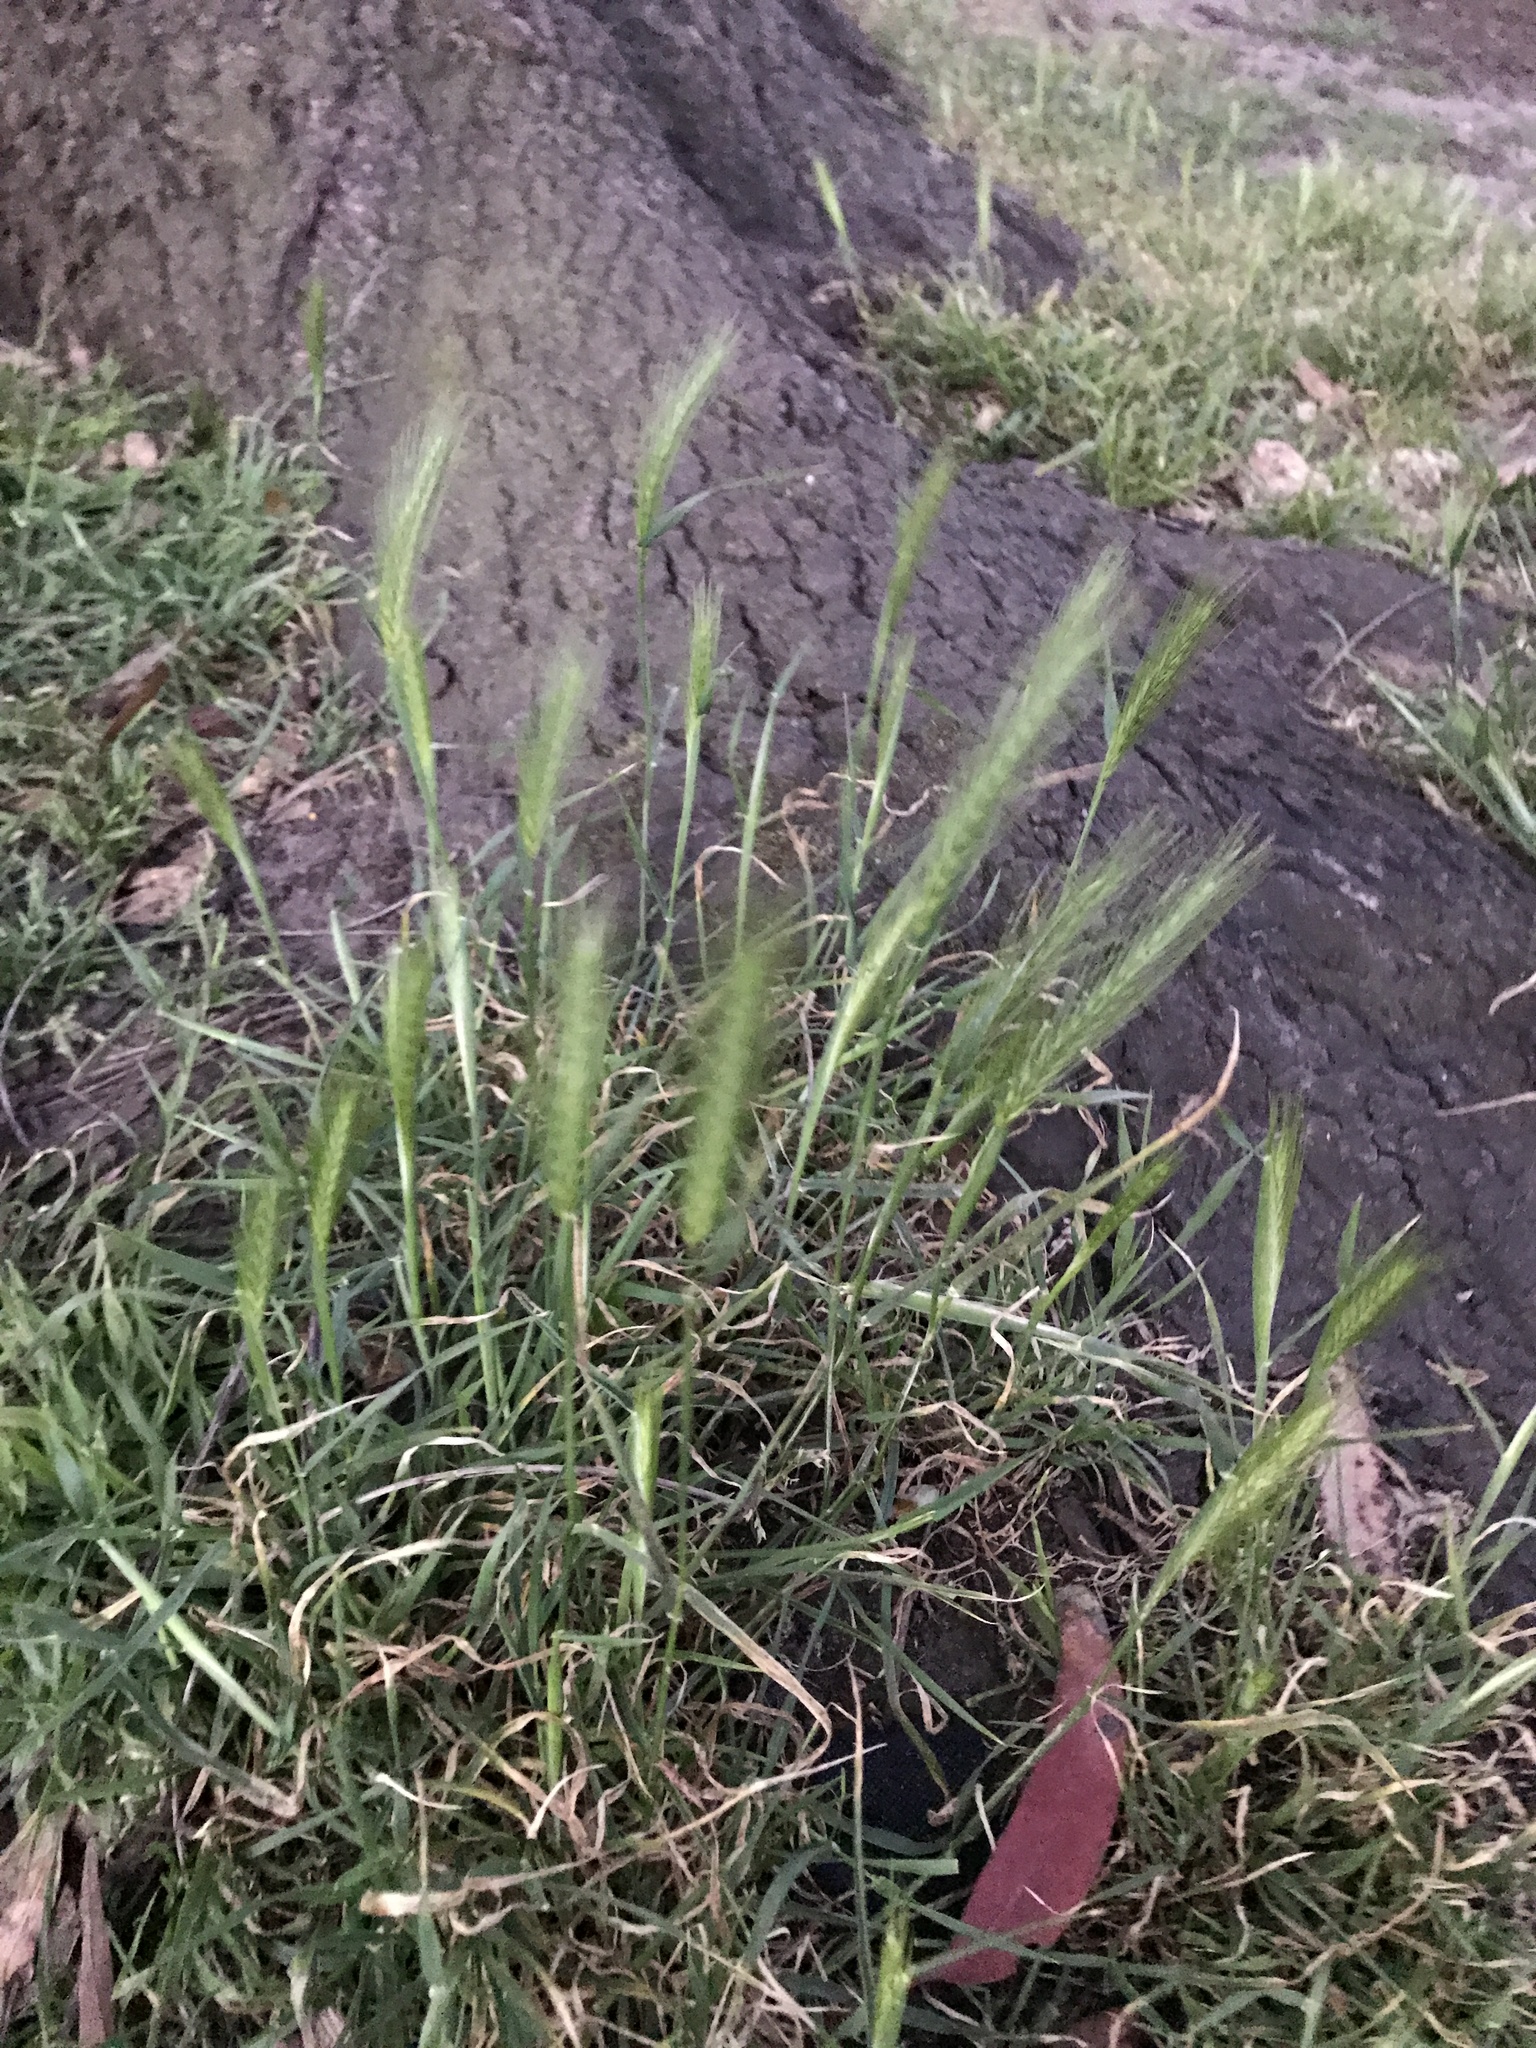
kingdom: Plantae
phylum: Tracheophyta
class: Liliopsida
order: Poales
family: Poaceae
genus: Hordeum
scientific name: Hordeum
